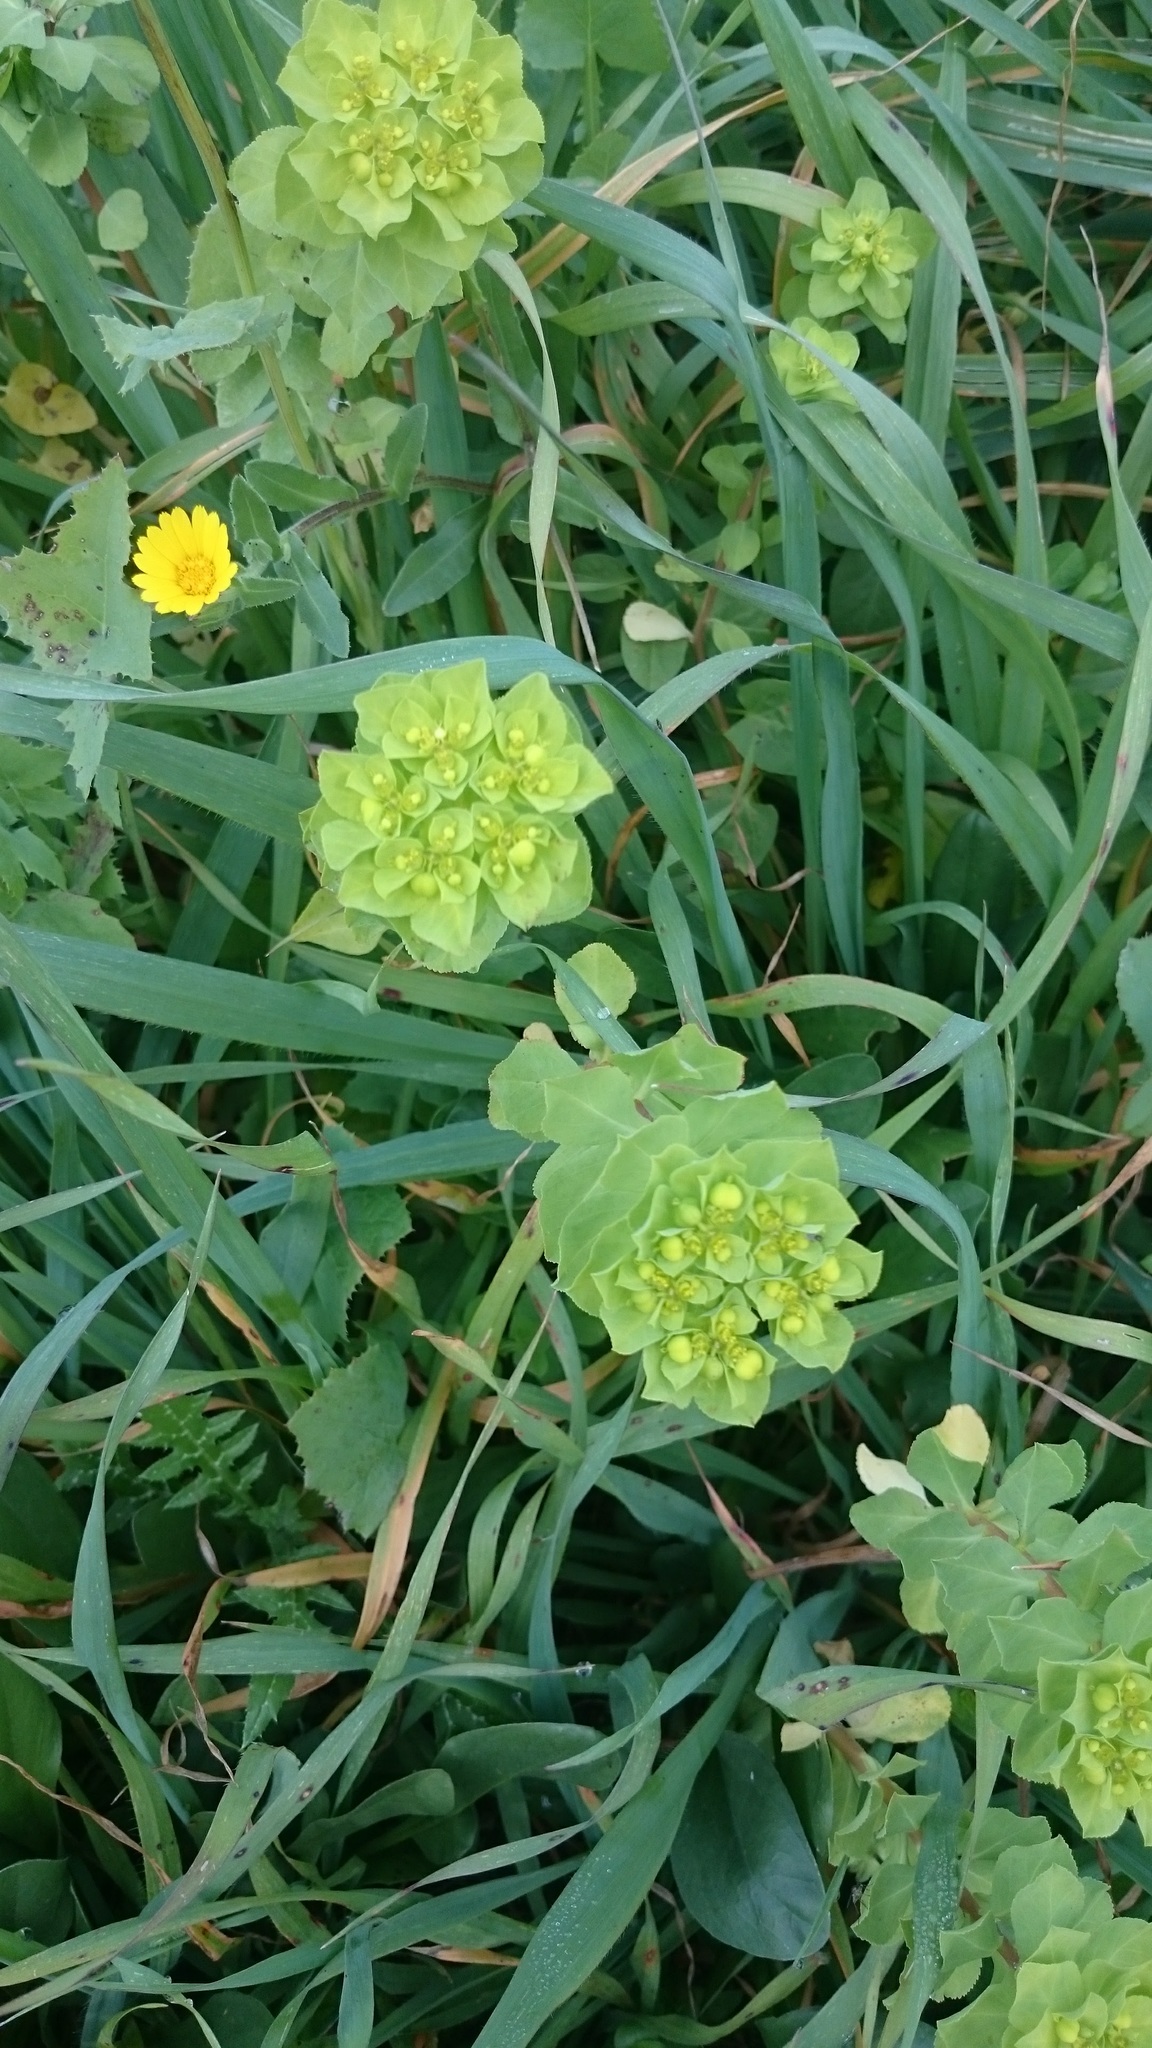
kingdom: Plantae
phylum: Tracheophyta
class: Magnoliopsida
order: Malpighiales
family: Euphorbiaceae
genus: Euphorbia
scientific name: Euphorbia helioscopia
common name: Sun spurge
